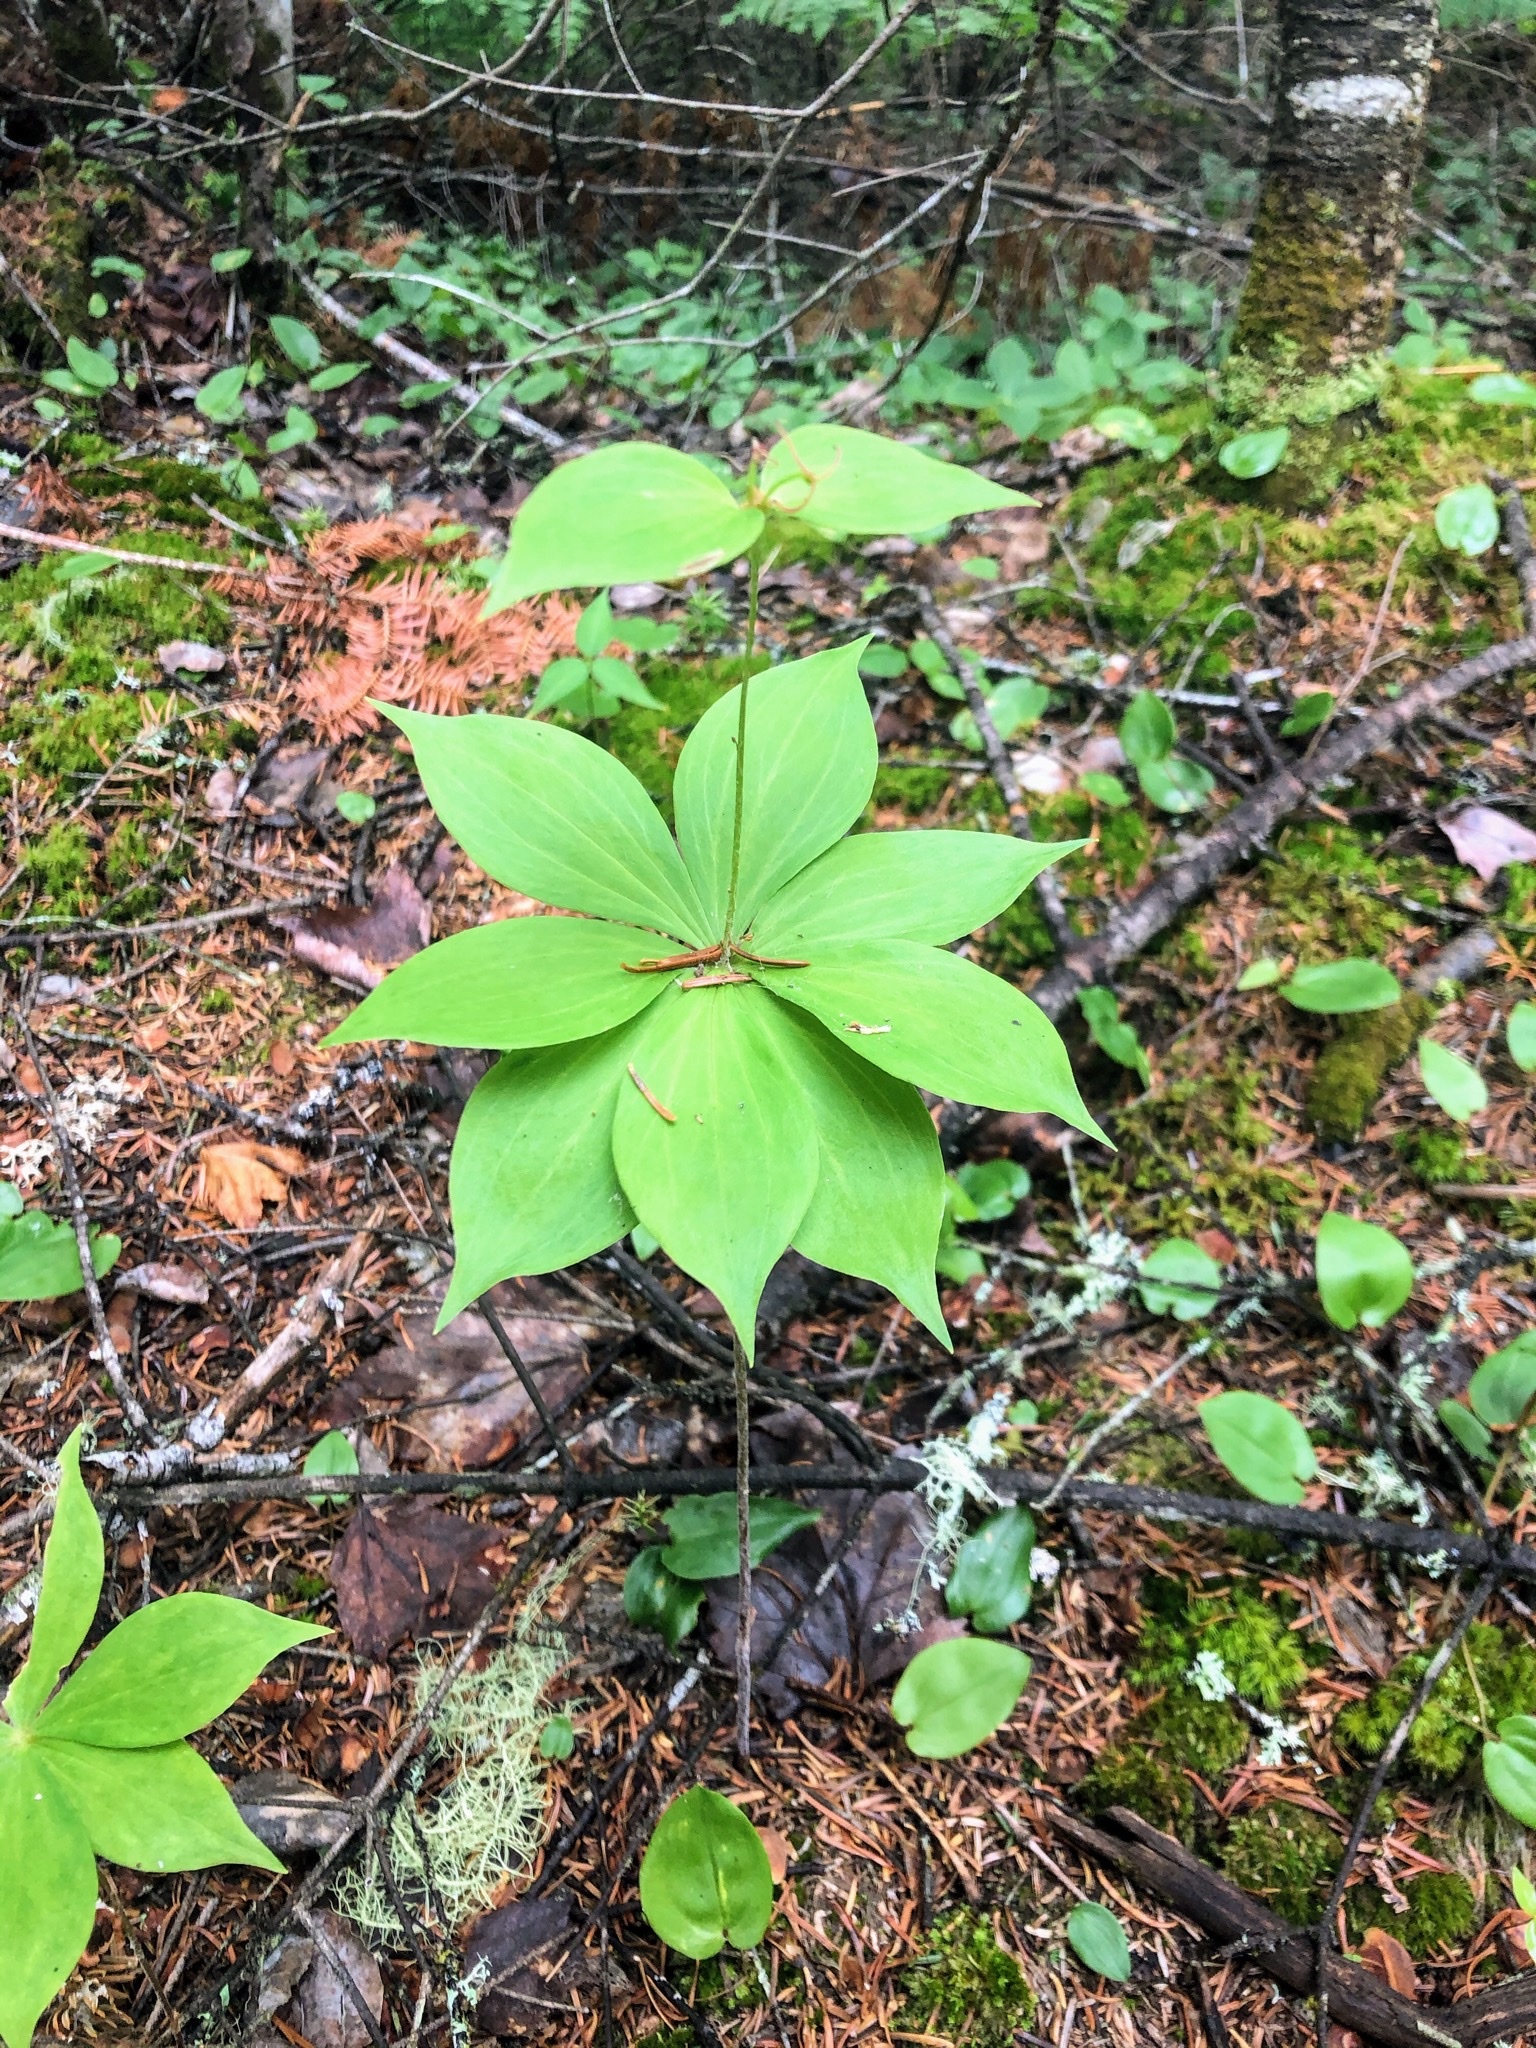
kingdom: Plantae
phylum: Tracheophyta
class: Liliopsida
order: Liliales
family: Liliaceae
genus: Medeola
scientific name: Medeola virginiana
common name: Indian cucumber-root
